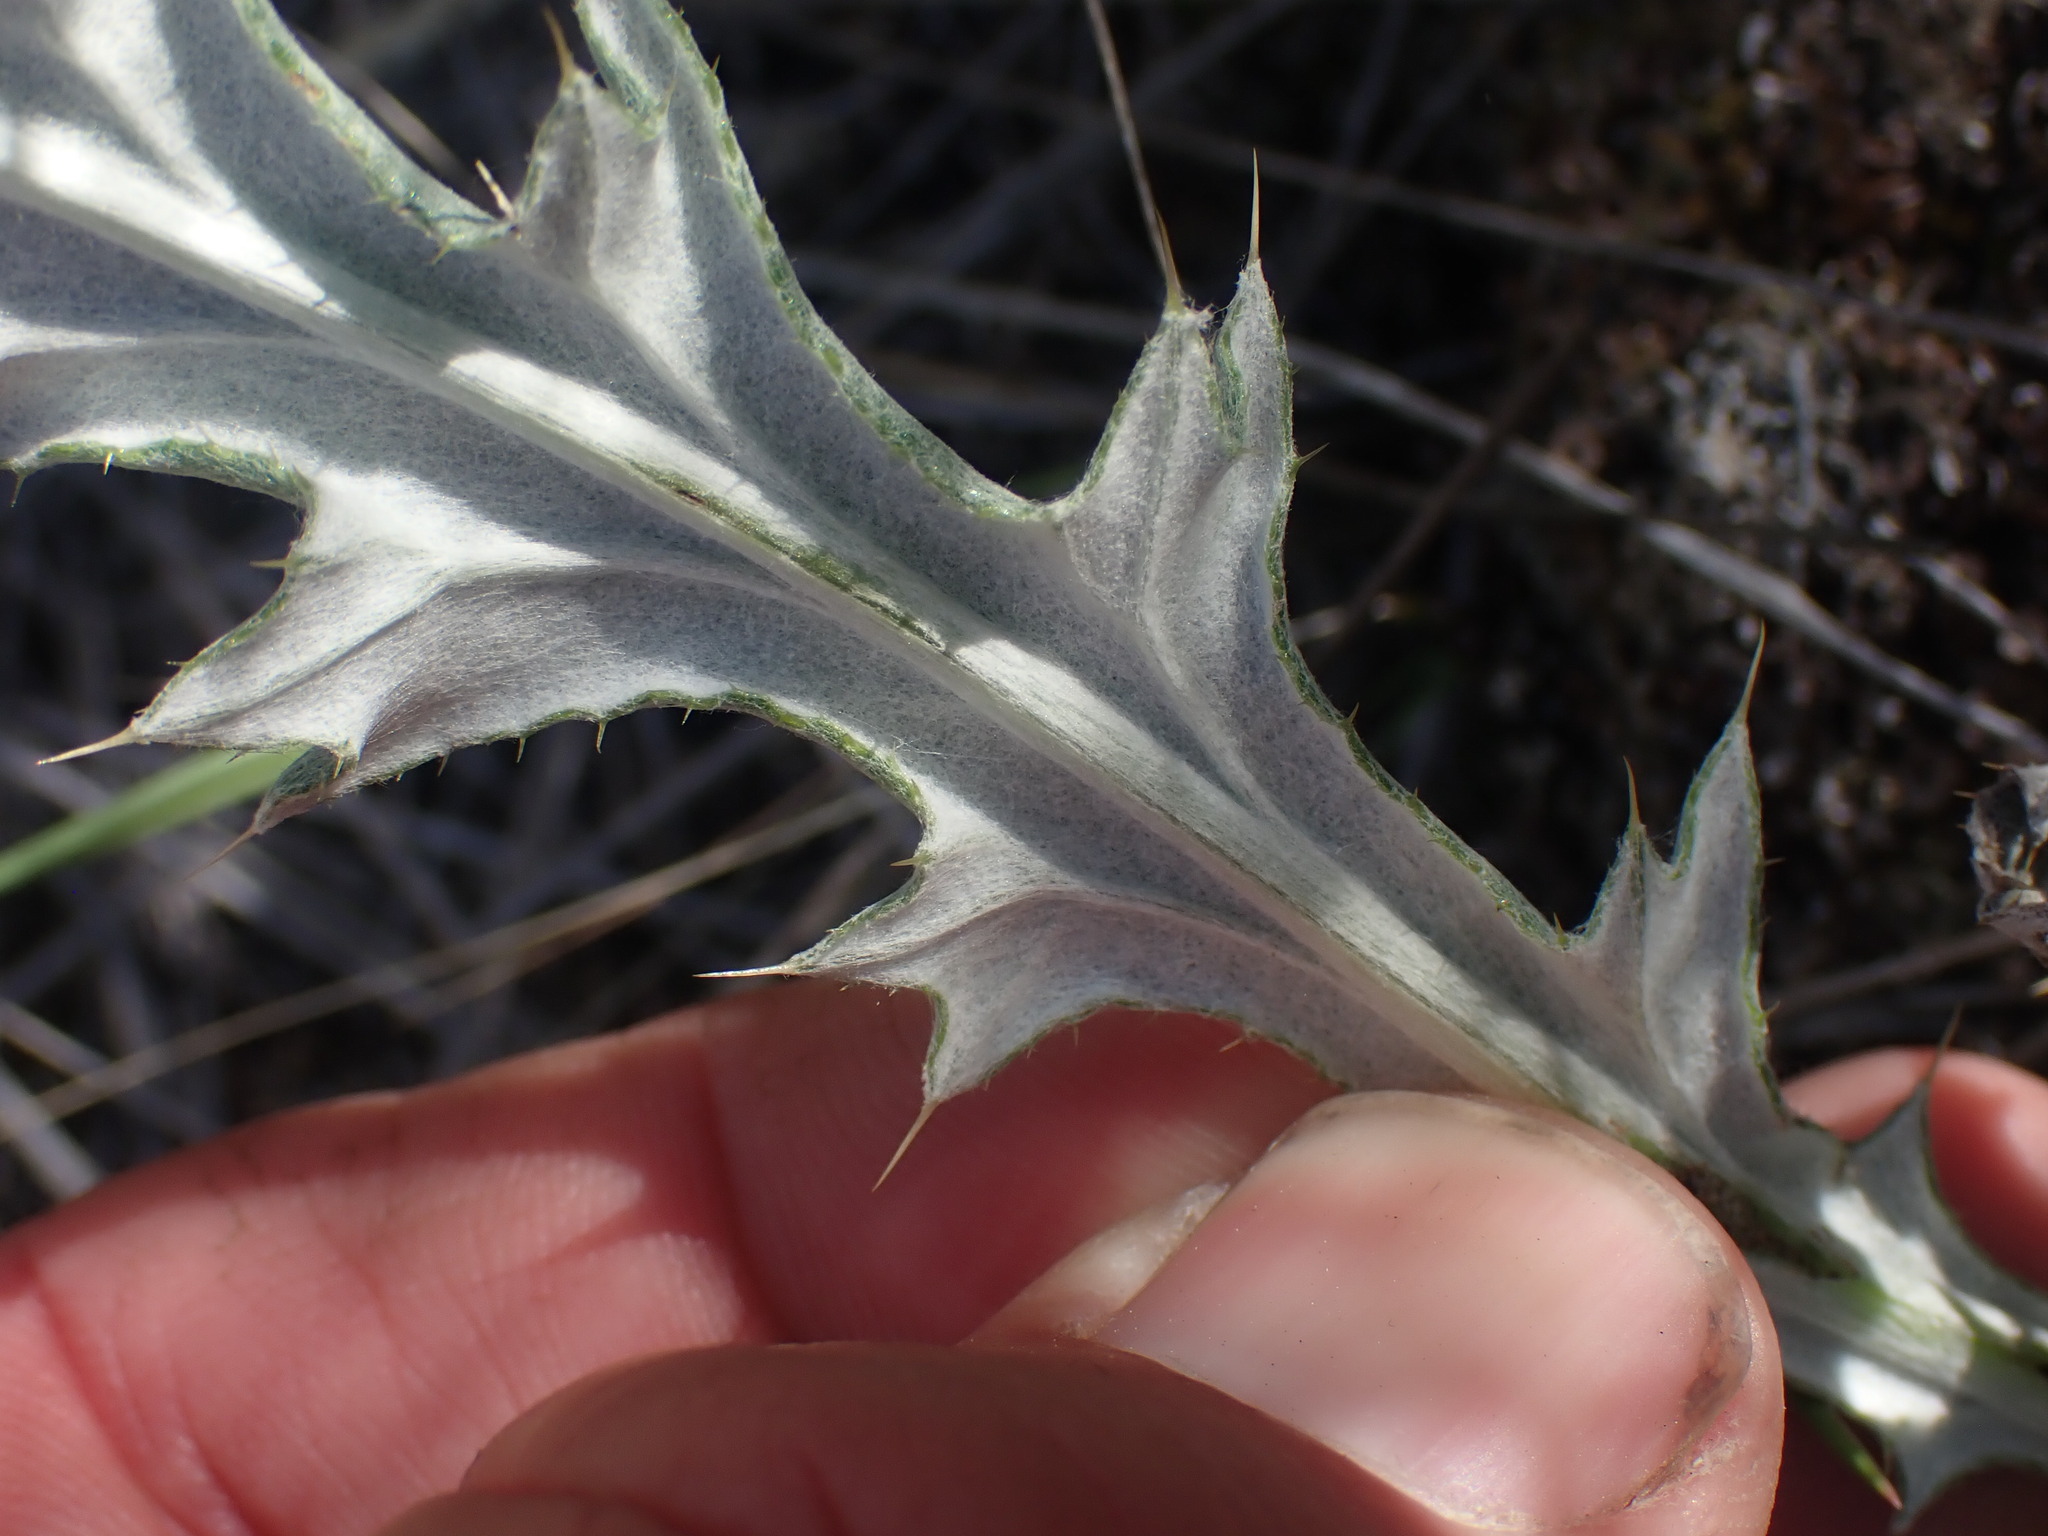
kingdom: Plantae
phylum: Tracheophyta
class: Magnoliopsida
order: Asterales
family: Asteraceae
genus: Cirsium
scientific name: Cirsium undulatum
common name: Pasture thistle
